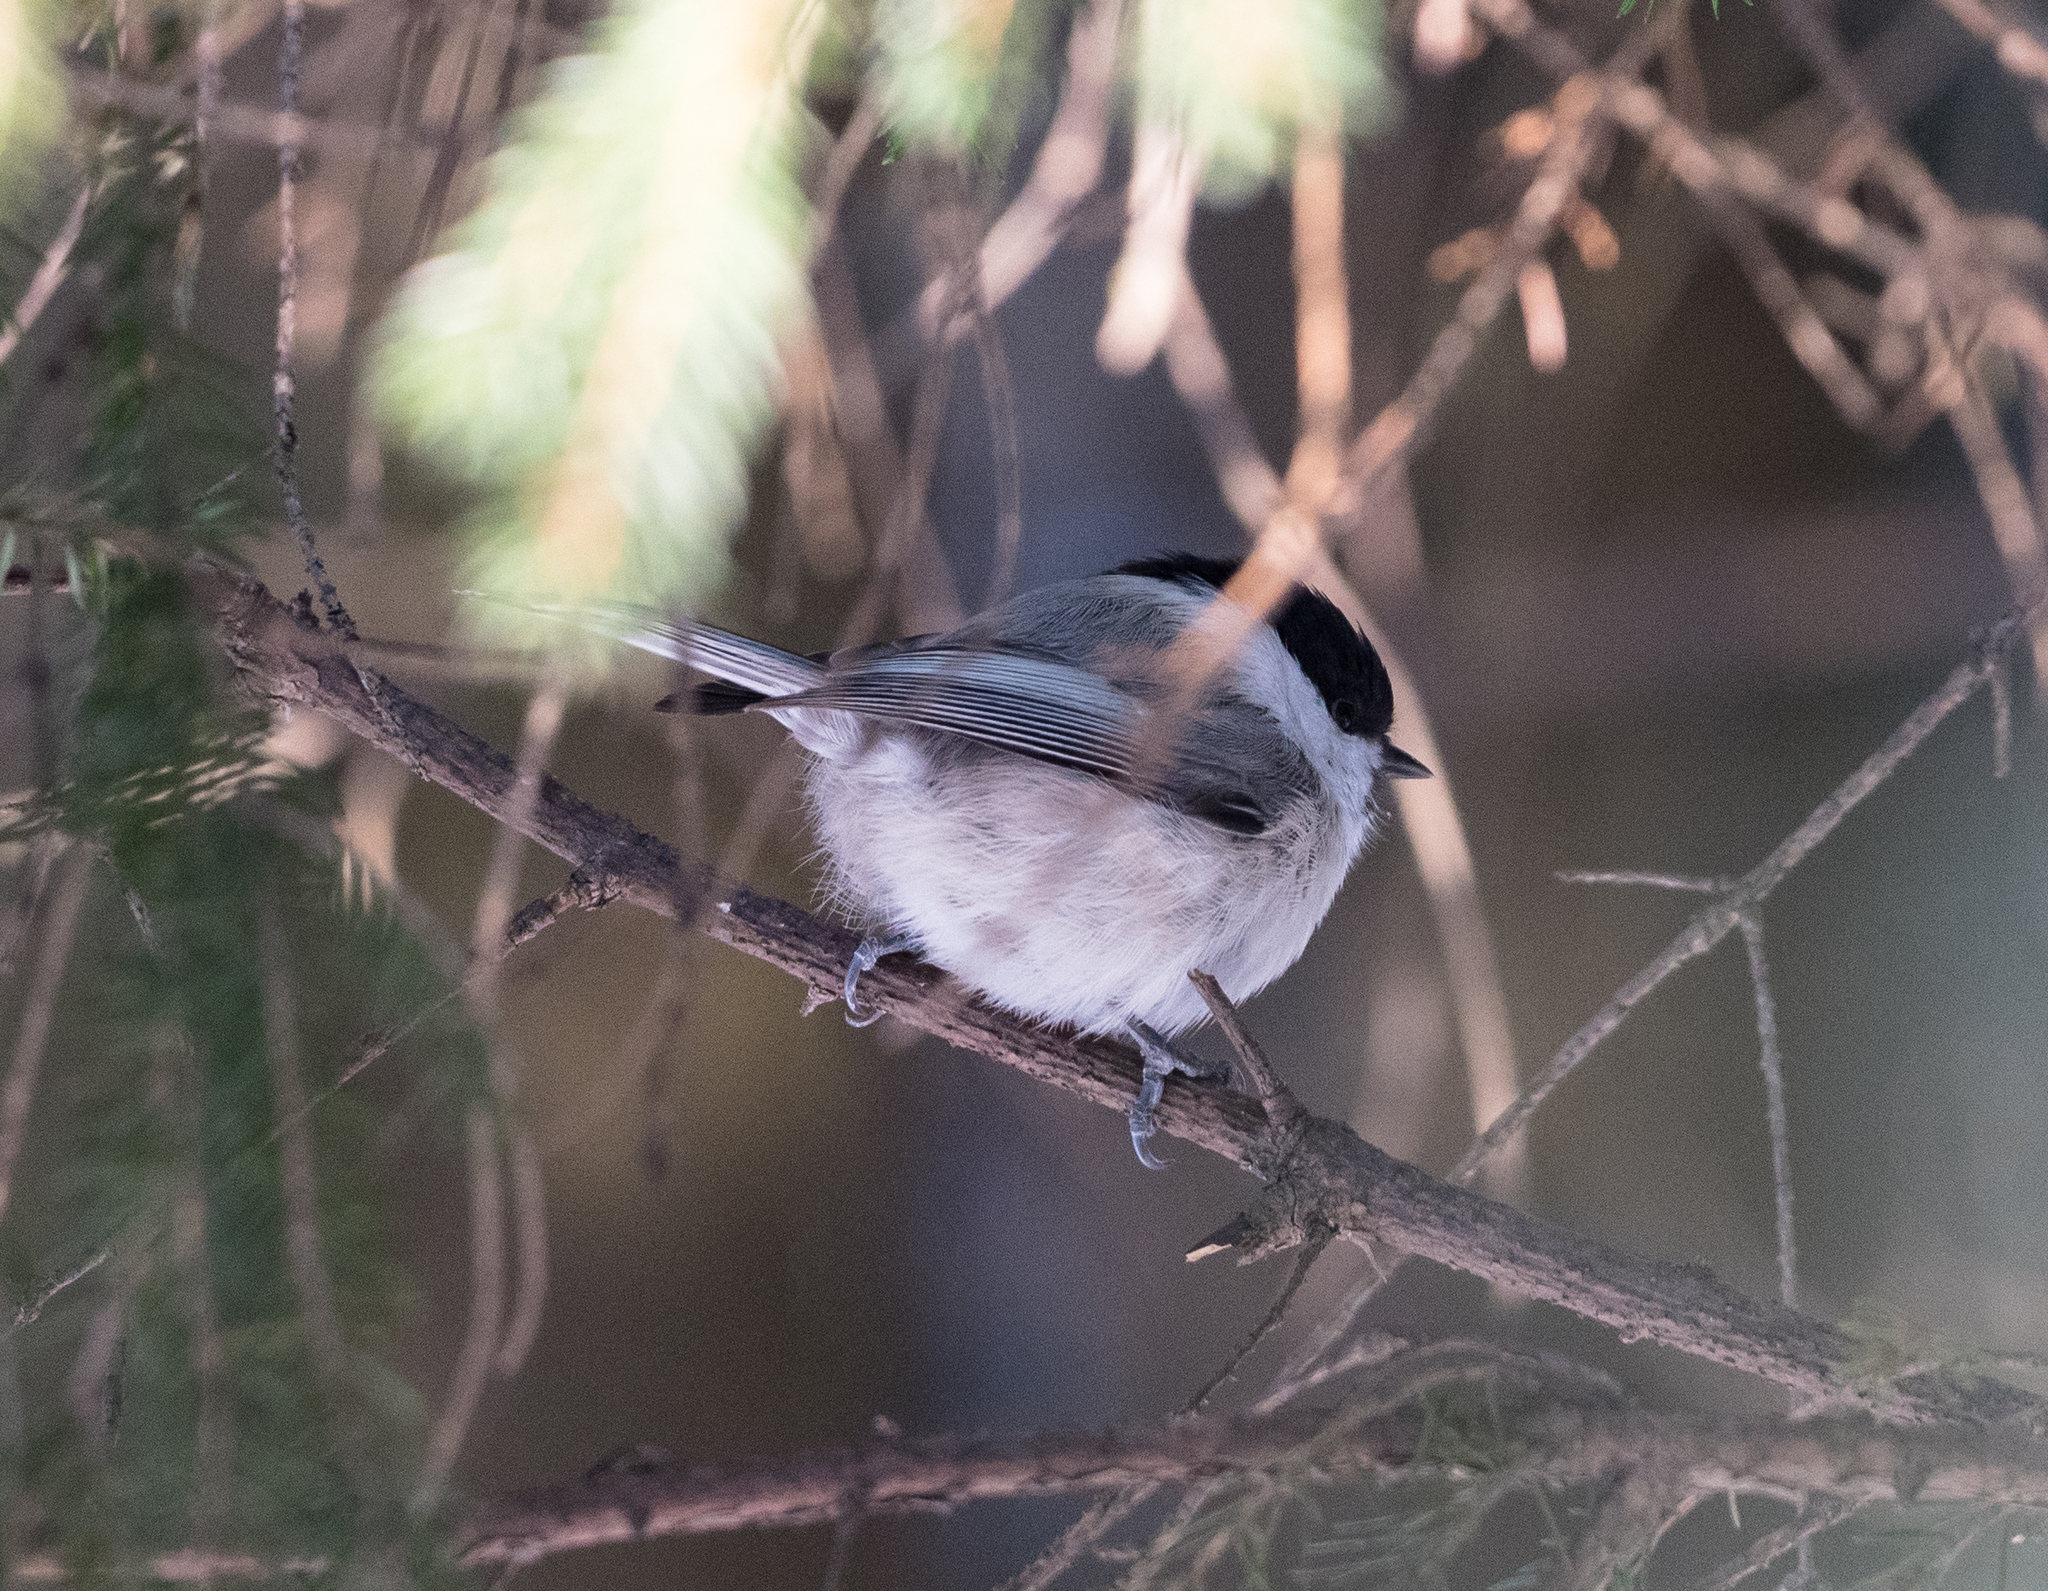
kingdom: Animalia
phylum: Chordata
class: Aves
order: Passeriformes
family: Paridae
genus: Poecile
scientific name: Poecile montanus
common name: Willow tit
